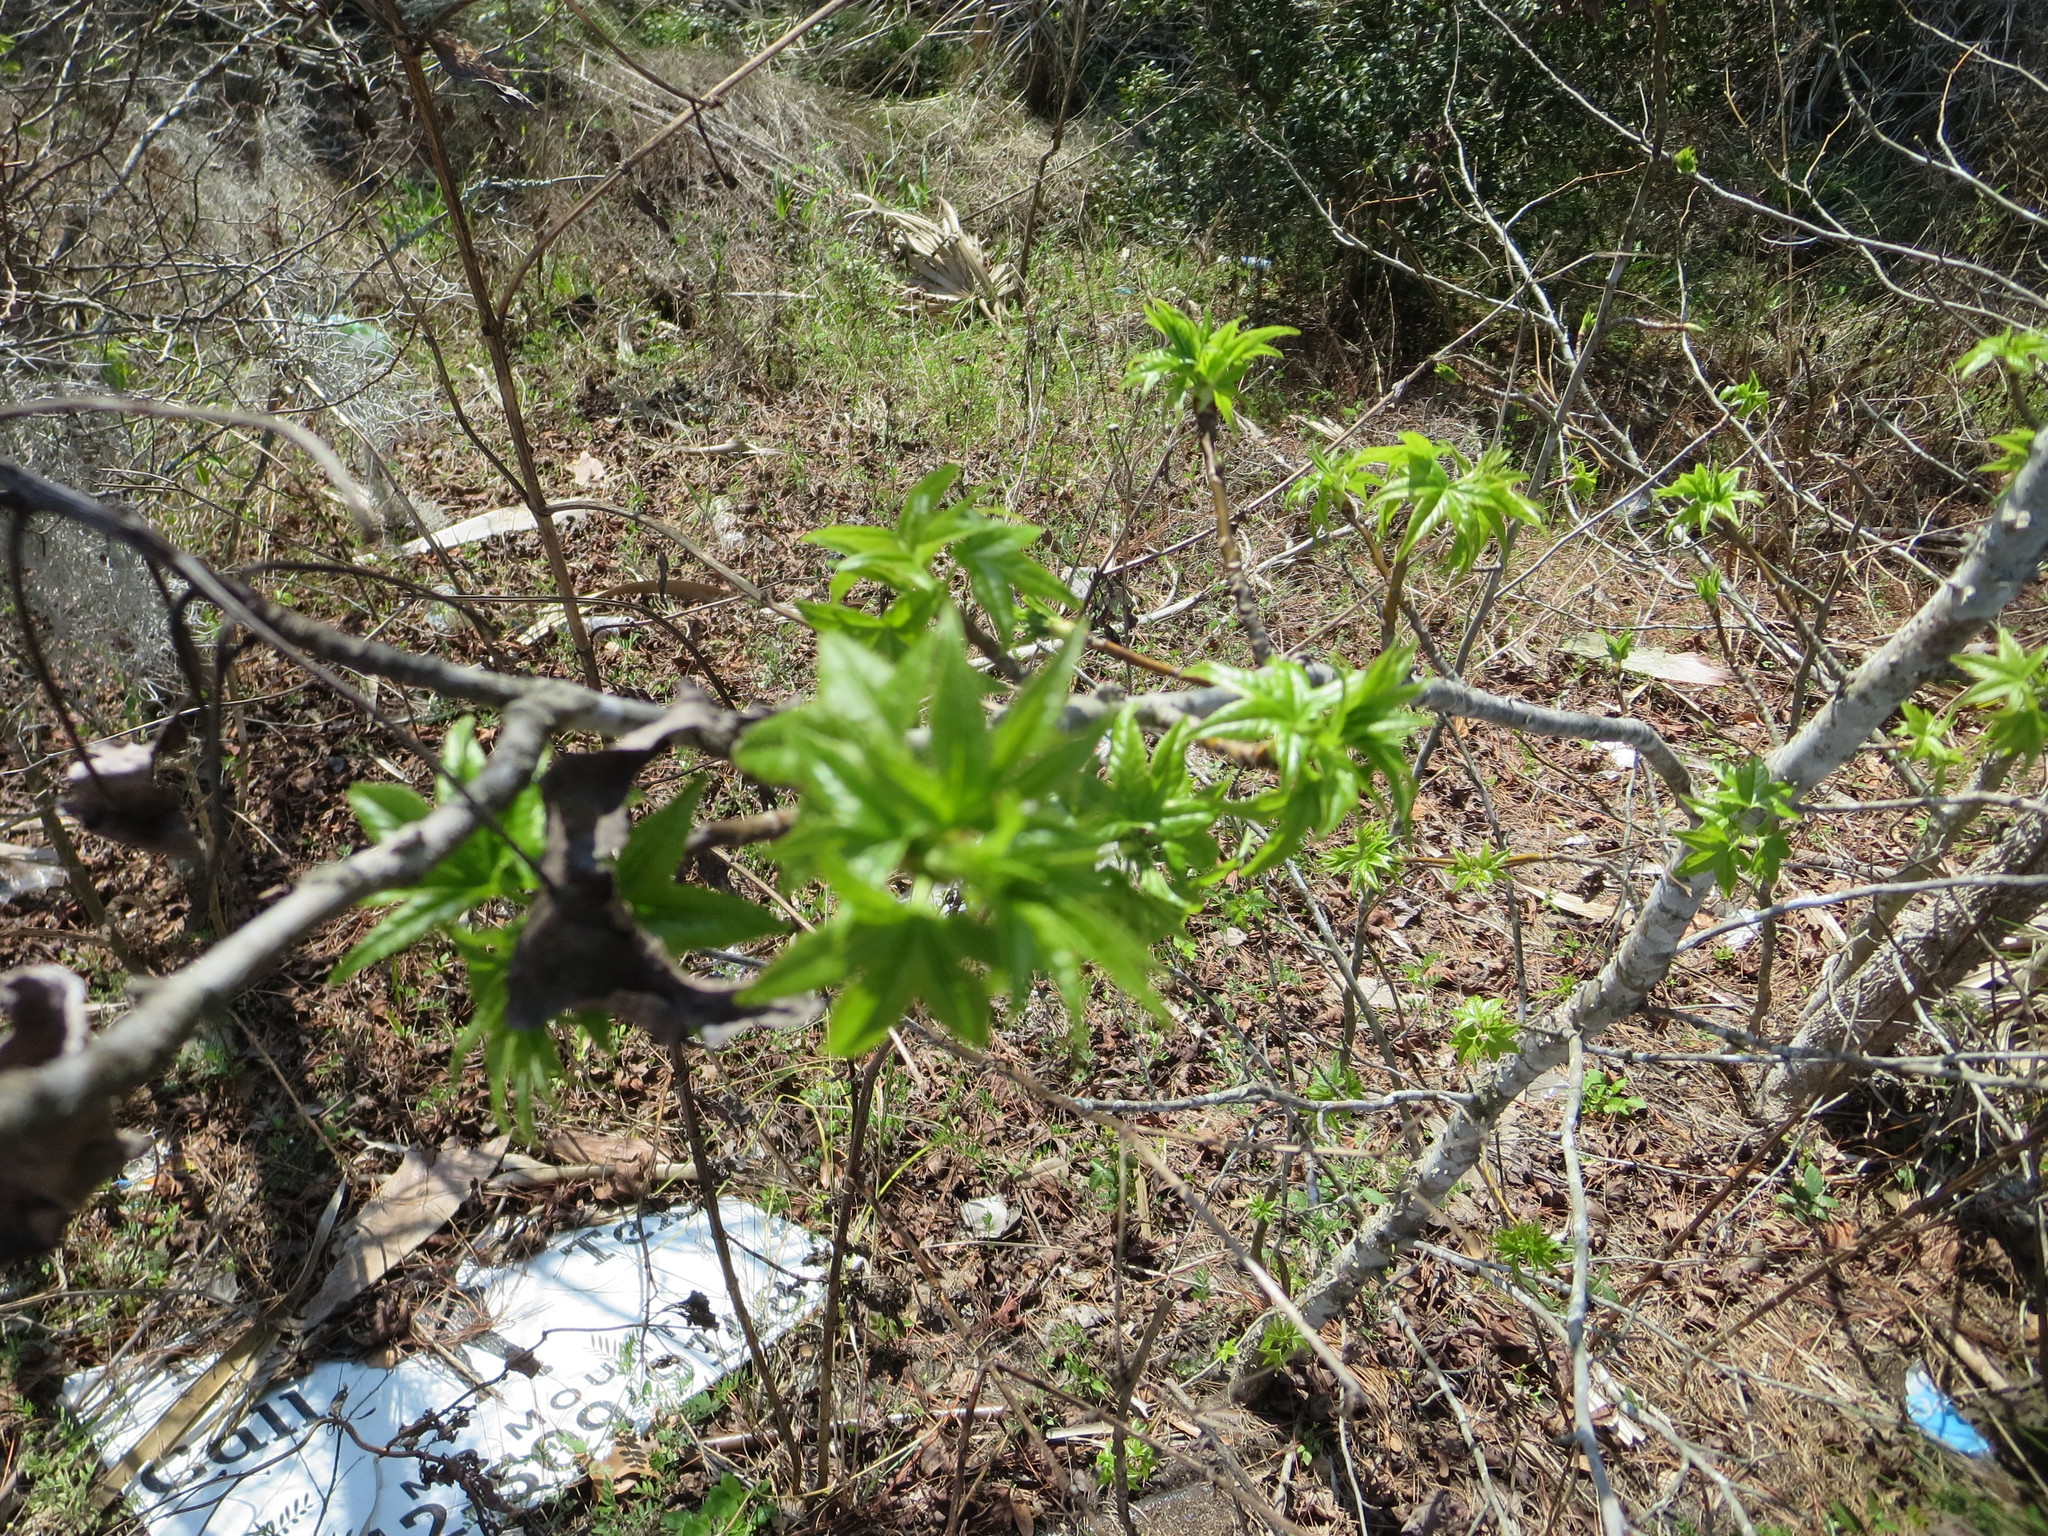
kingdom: Plantae
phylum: Tracheophyta
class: Magnoliopsida
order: Saxifragales
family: Altingiaceae
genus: Liquidambar
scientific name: Liquidambar styraciflua
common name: Sweet gum
